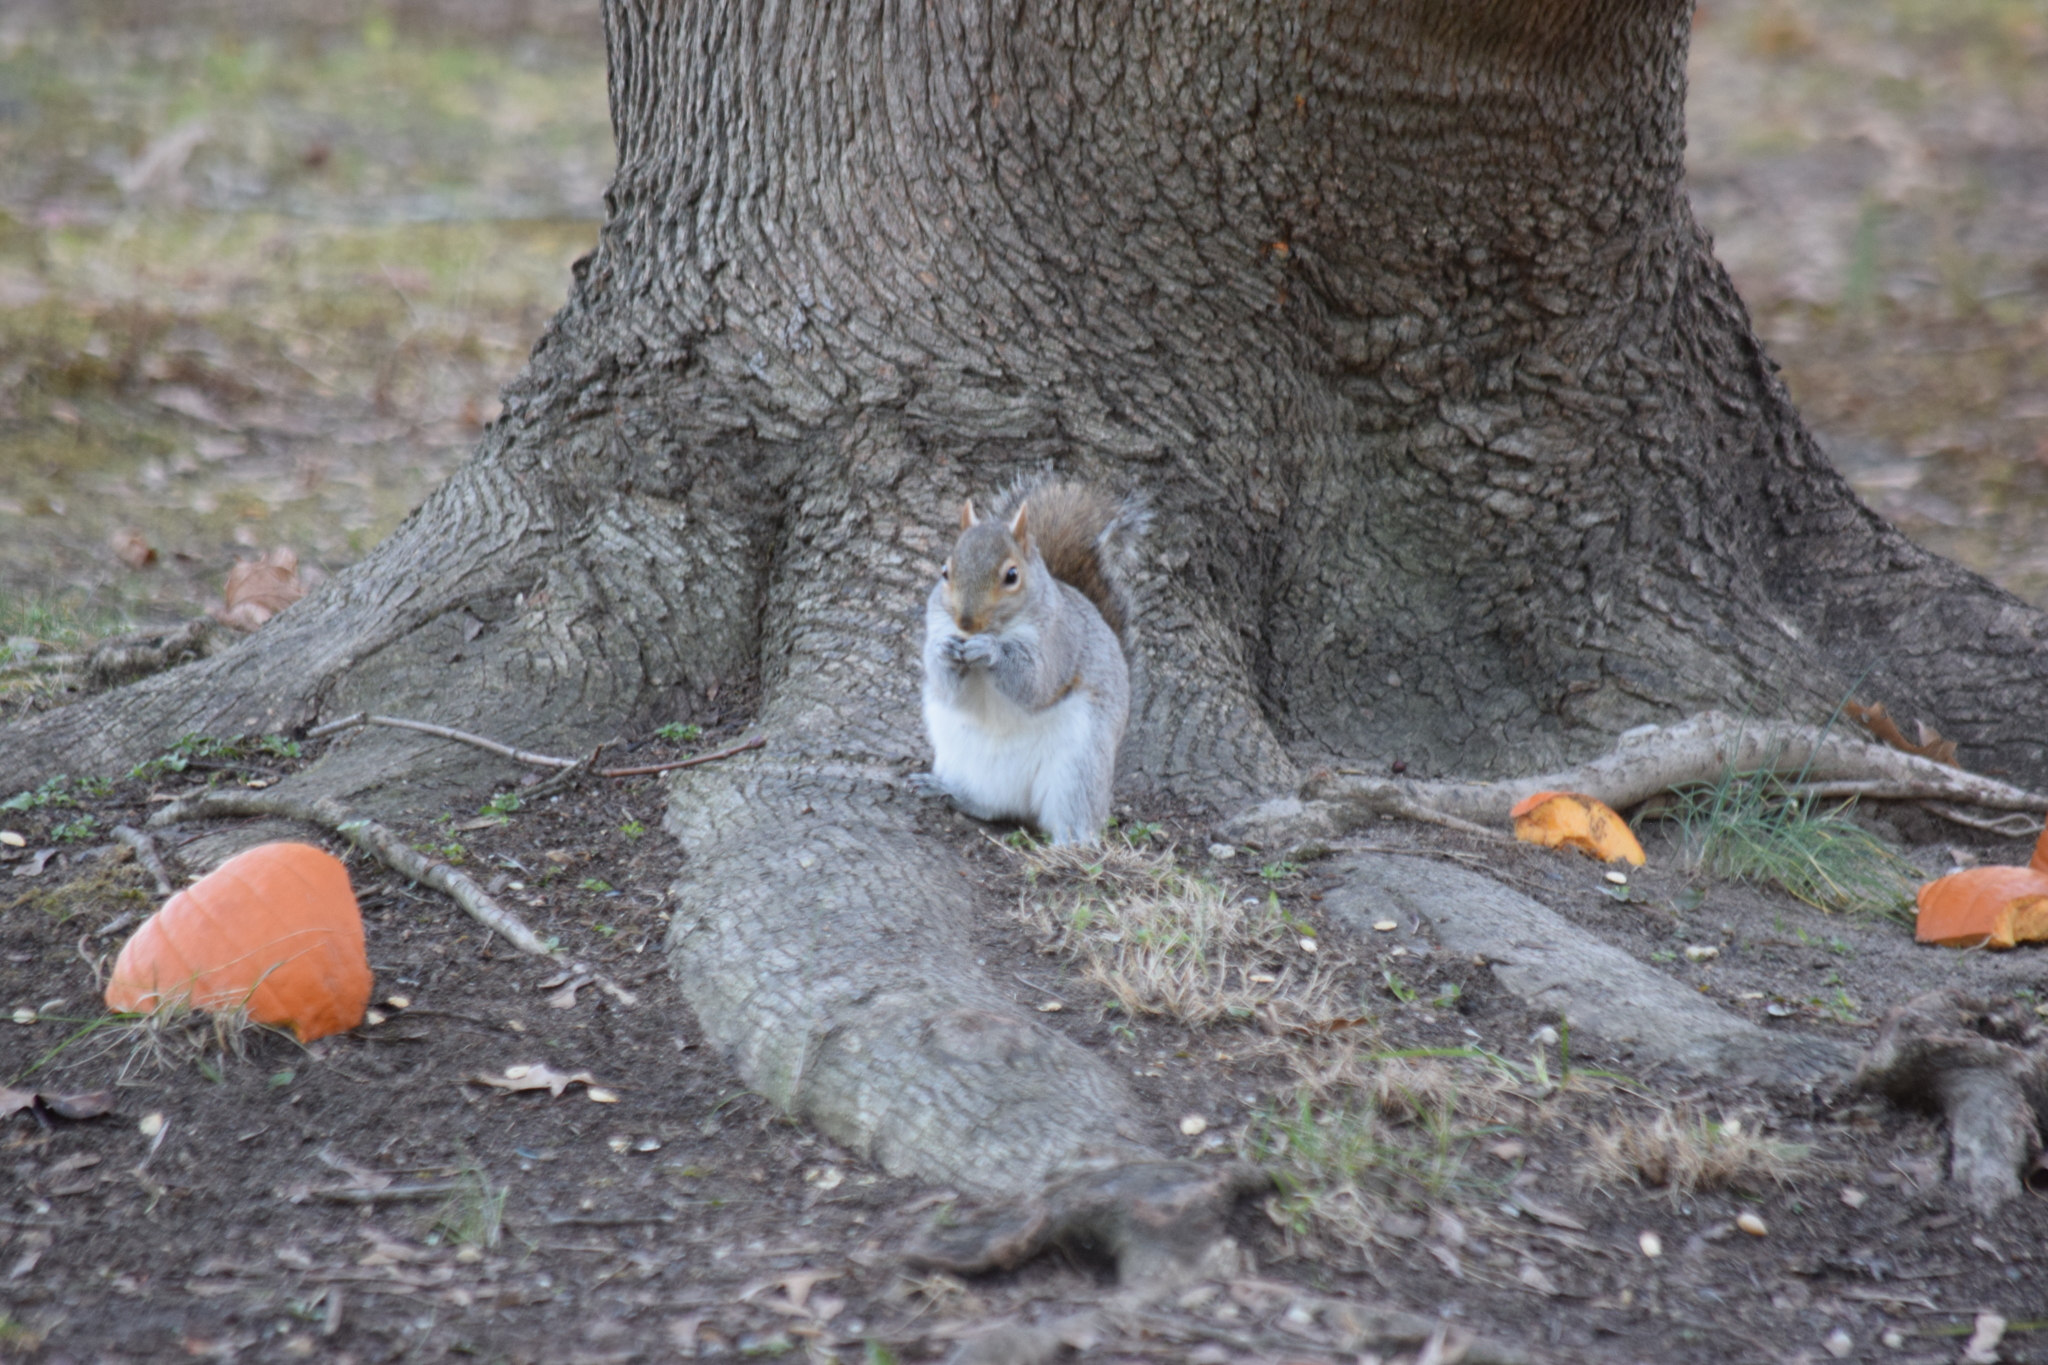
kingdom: Animalia
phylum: Chordata
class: Mammalia
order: Rodentia
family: Sciuridae
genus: Sciurus
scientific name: Sciurus carolinensis
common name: Eastern gray squirrel
